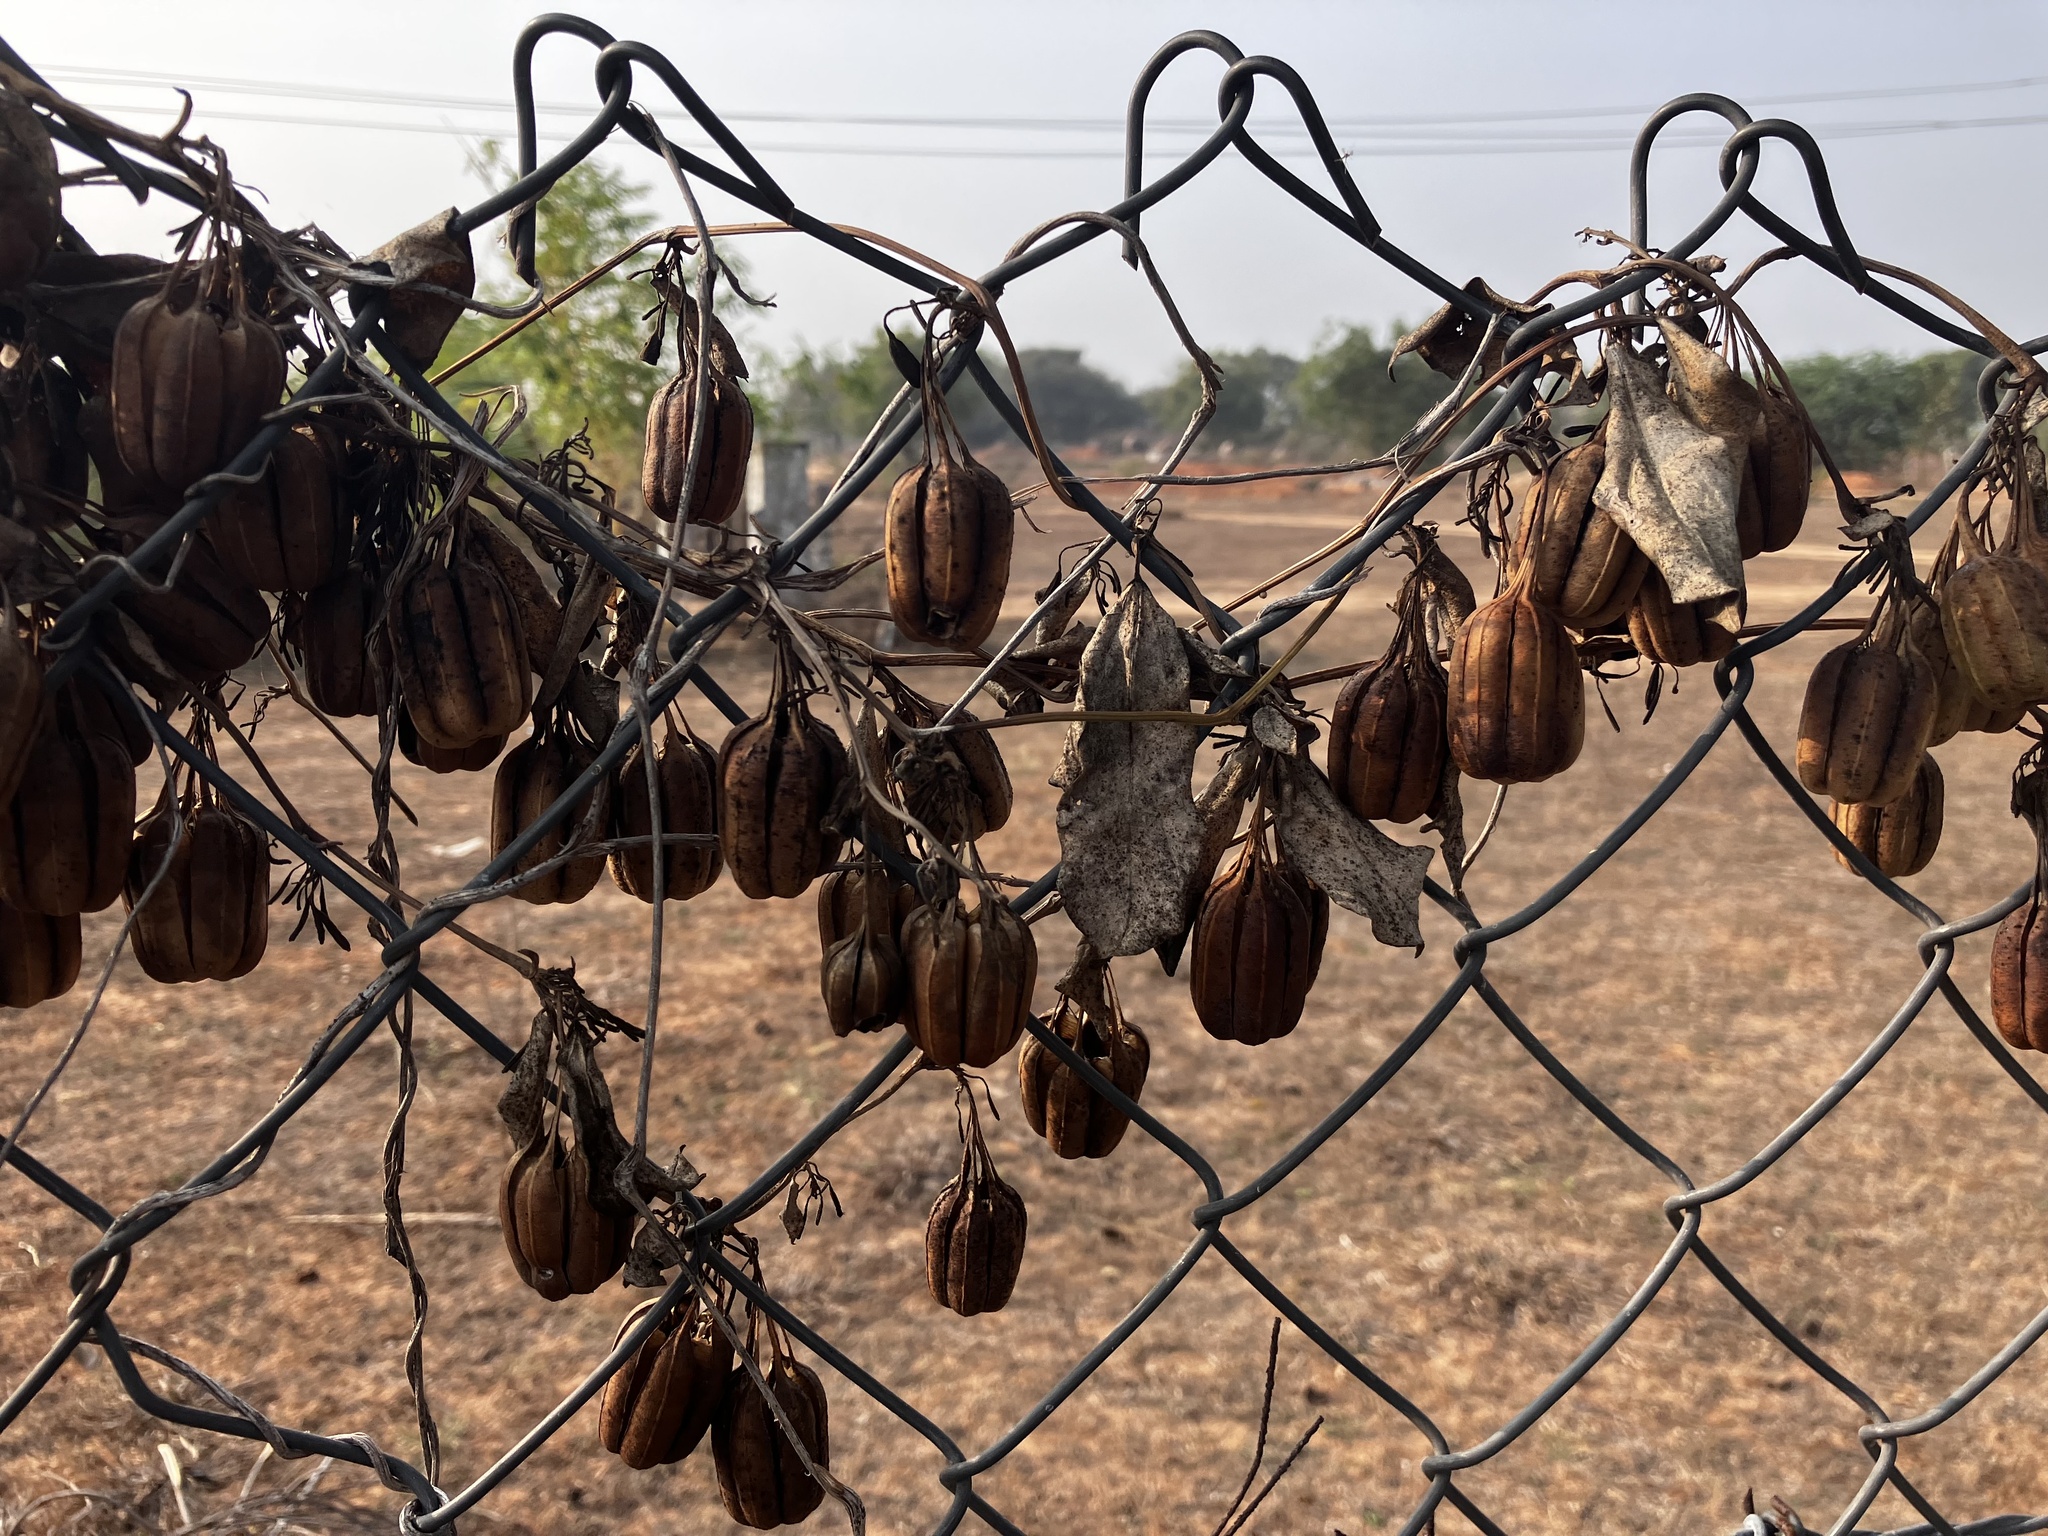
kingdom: Plantae
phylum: Tracheophyta
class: Magnoliopsida
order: Piperales
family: Aristolochiaceae
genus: Aristolochia
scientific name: Aristolochia indica
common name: Indian birthwort
